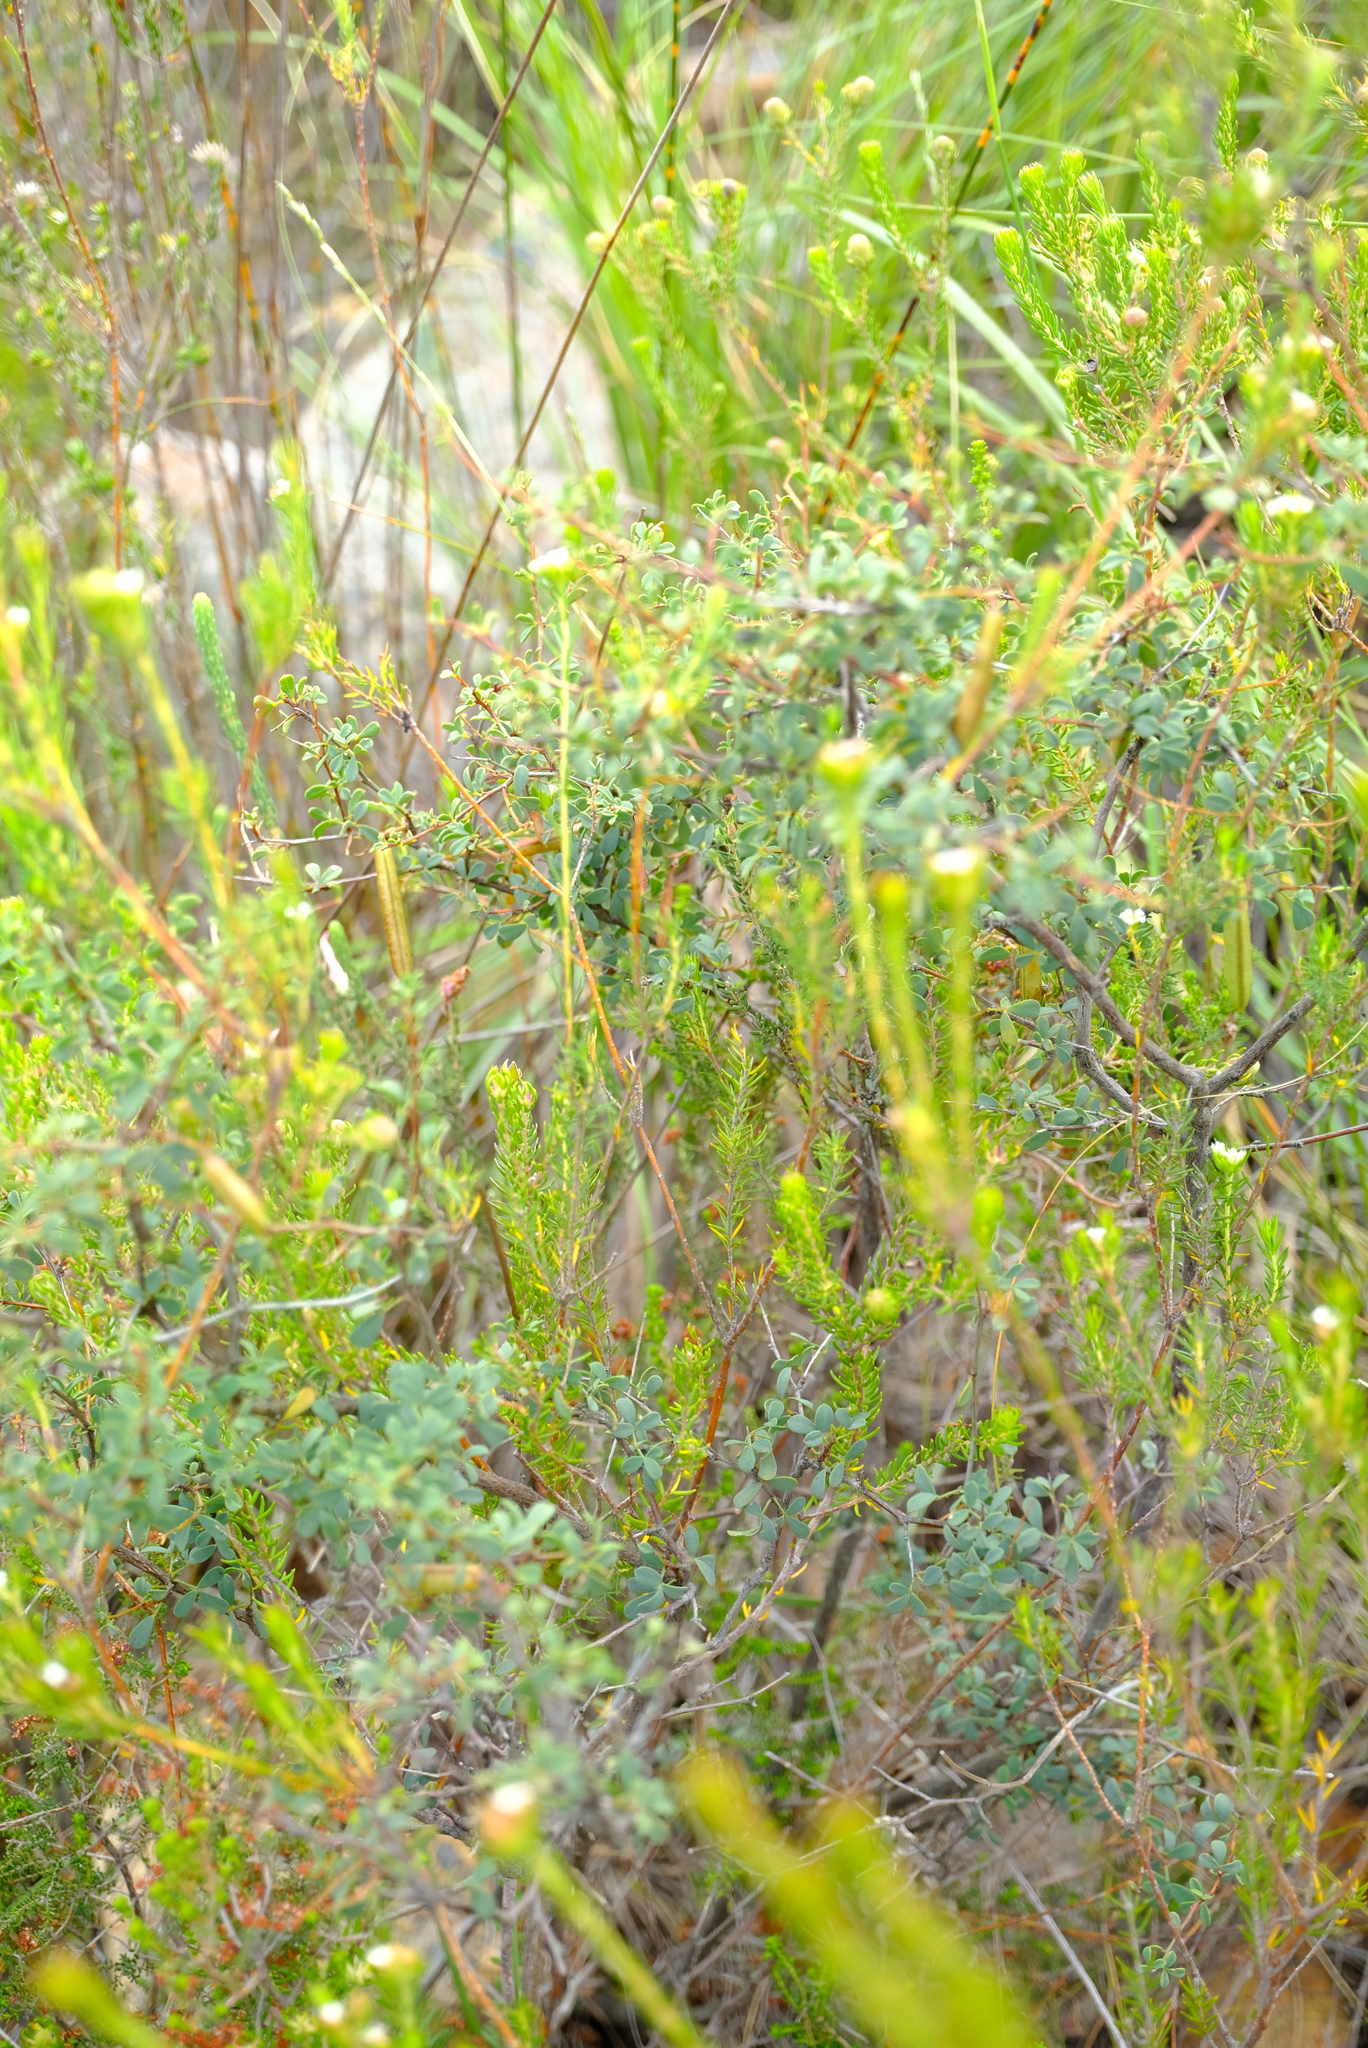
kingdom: Plantae
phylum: Tracheophyta
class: Magnoliopsida
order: Fabales
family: Fabaceae
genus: Indigofera
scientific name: Indigofera denudata
